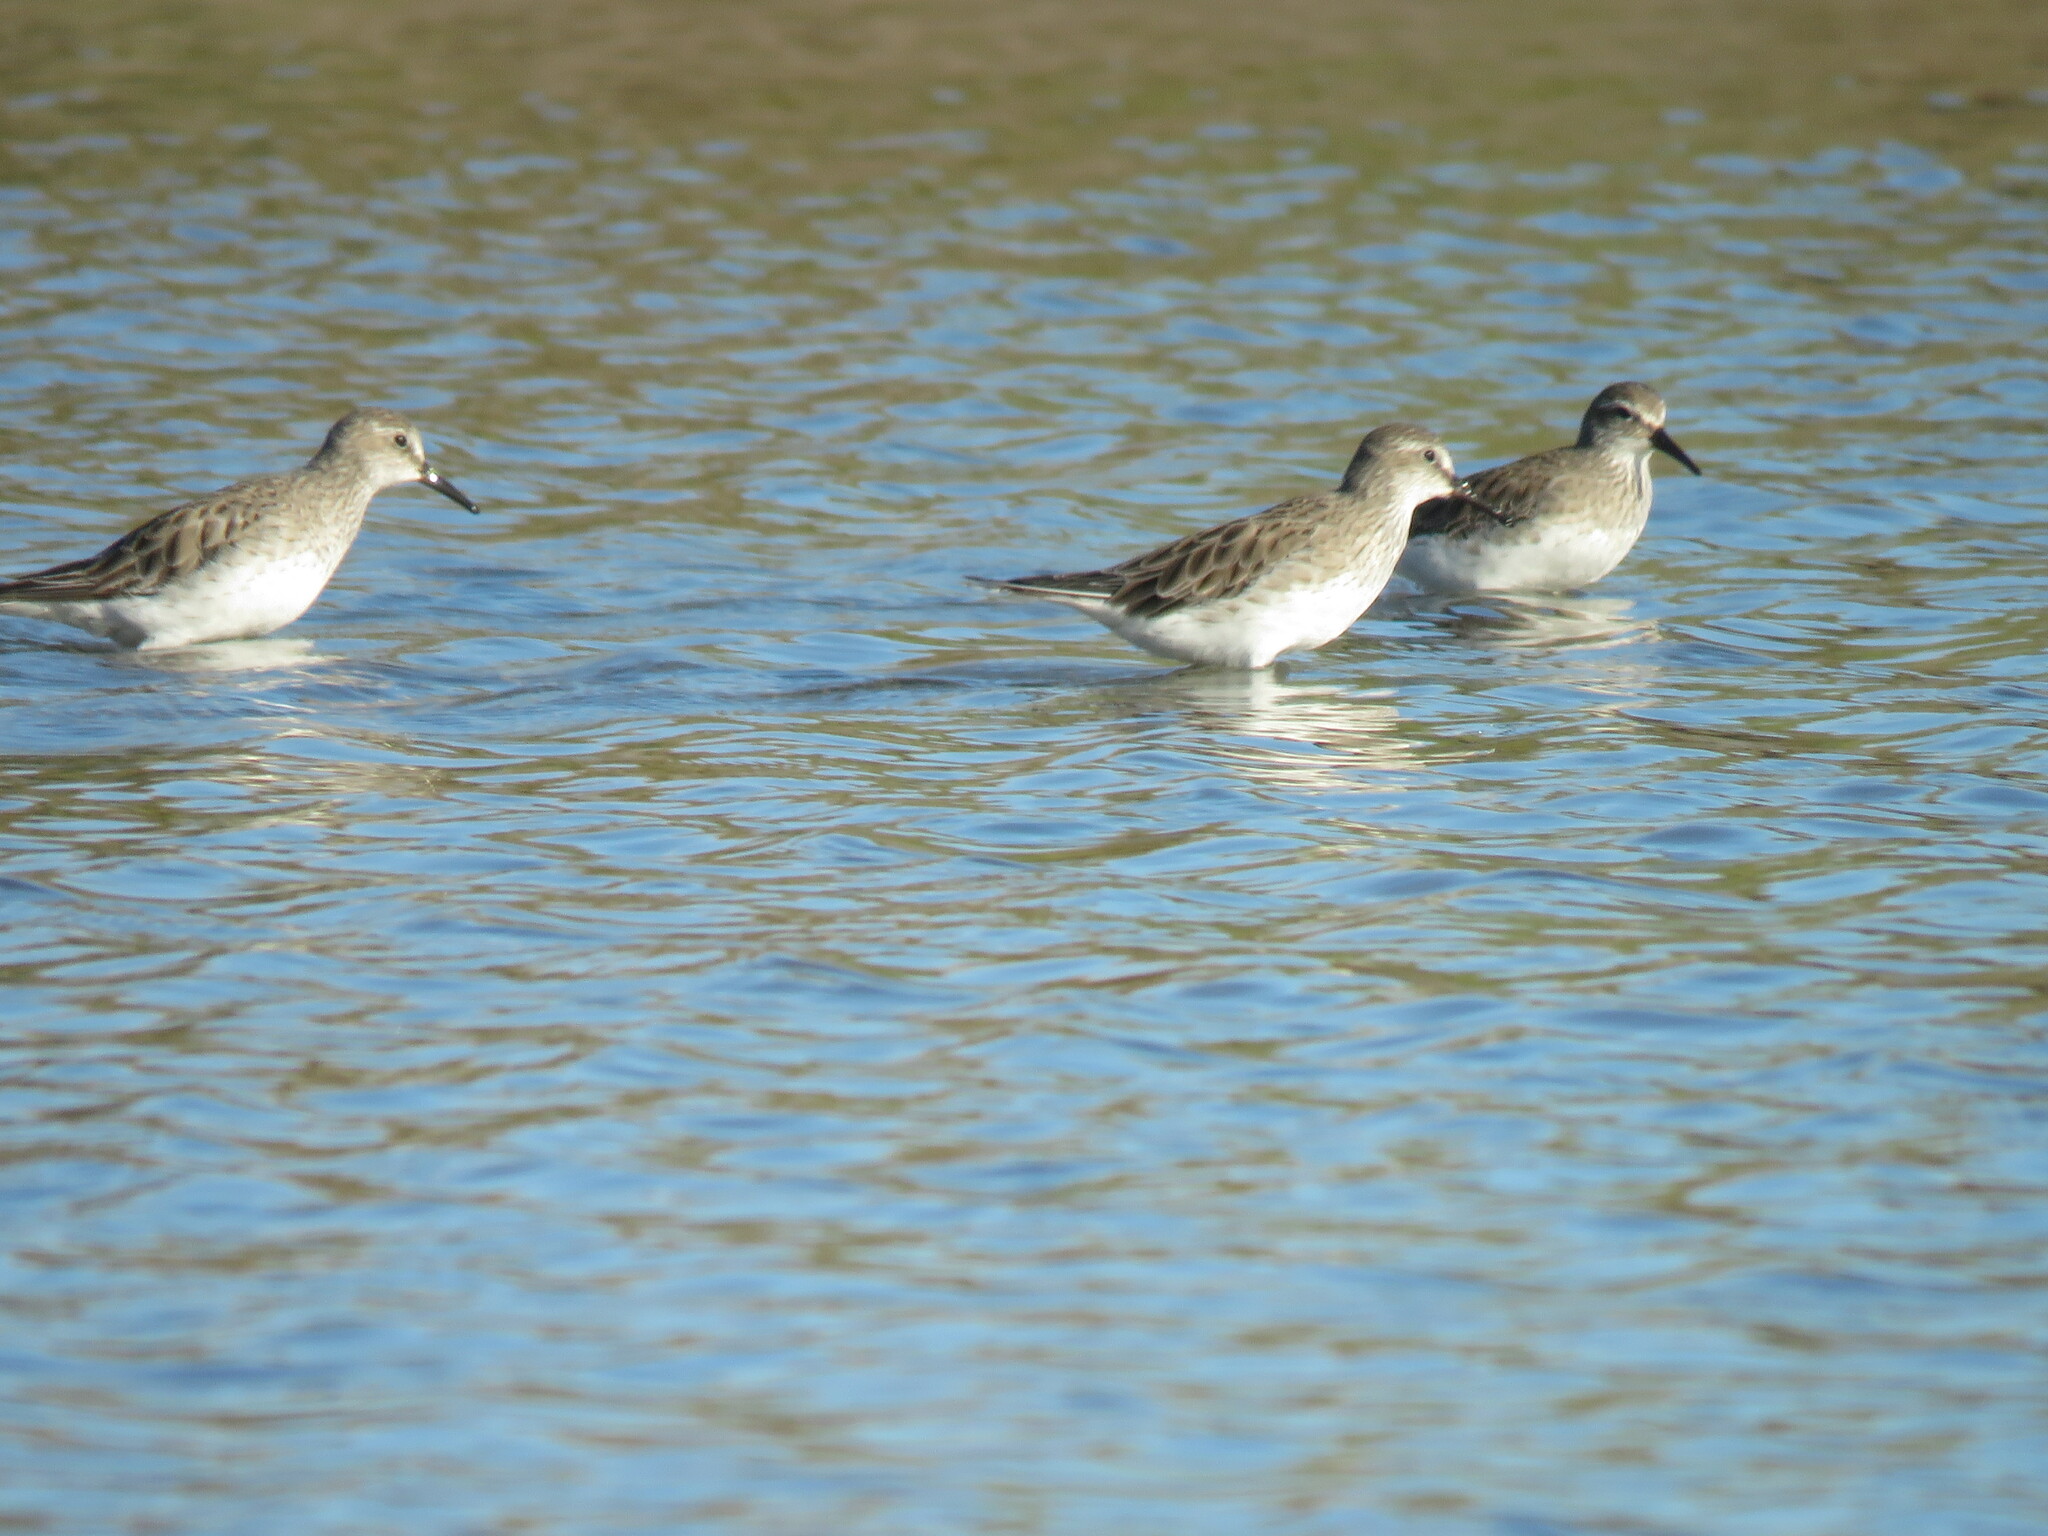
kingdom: Animalia
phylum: Chordata
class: Aves
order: Charadriiformes
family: Scolopacidae
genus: Calidris
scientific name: Calidris fuscicollis
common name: White-rumped sandpiper
